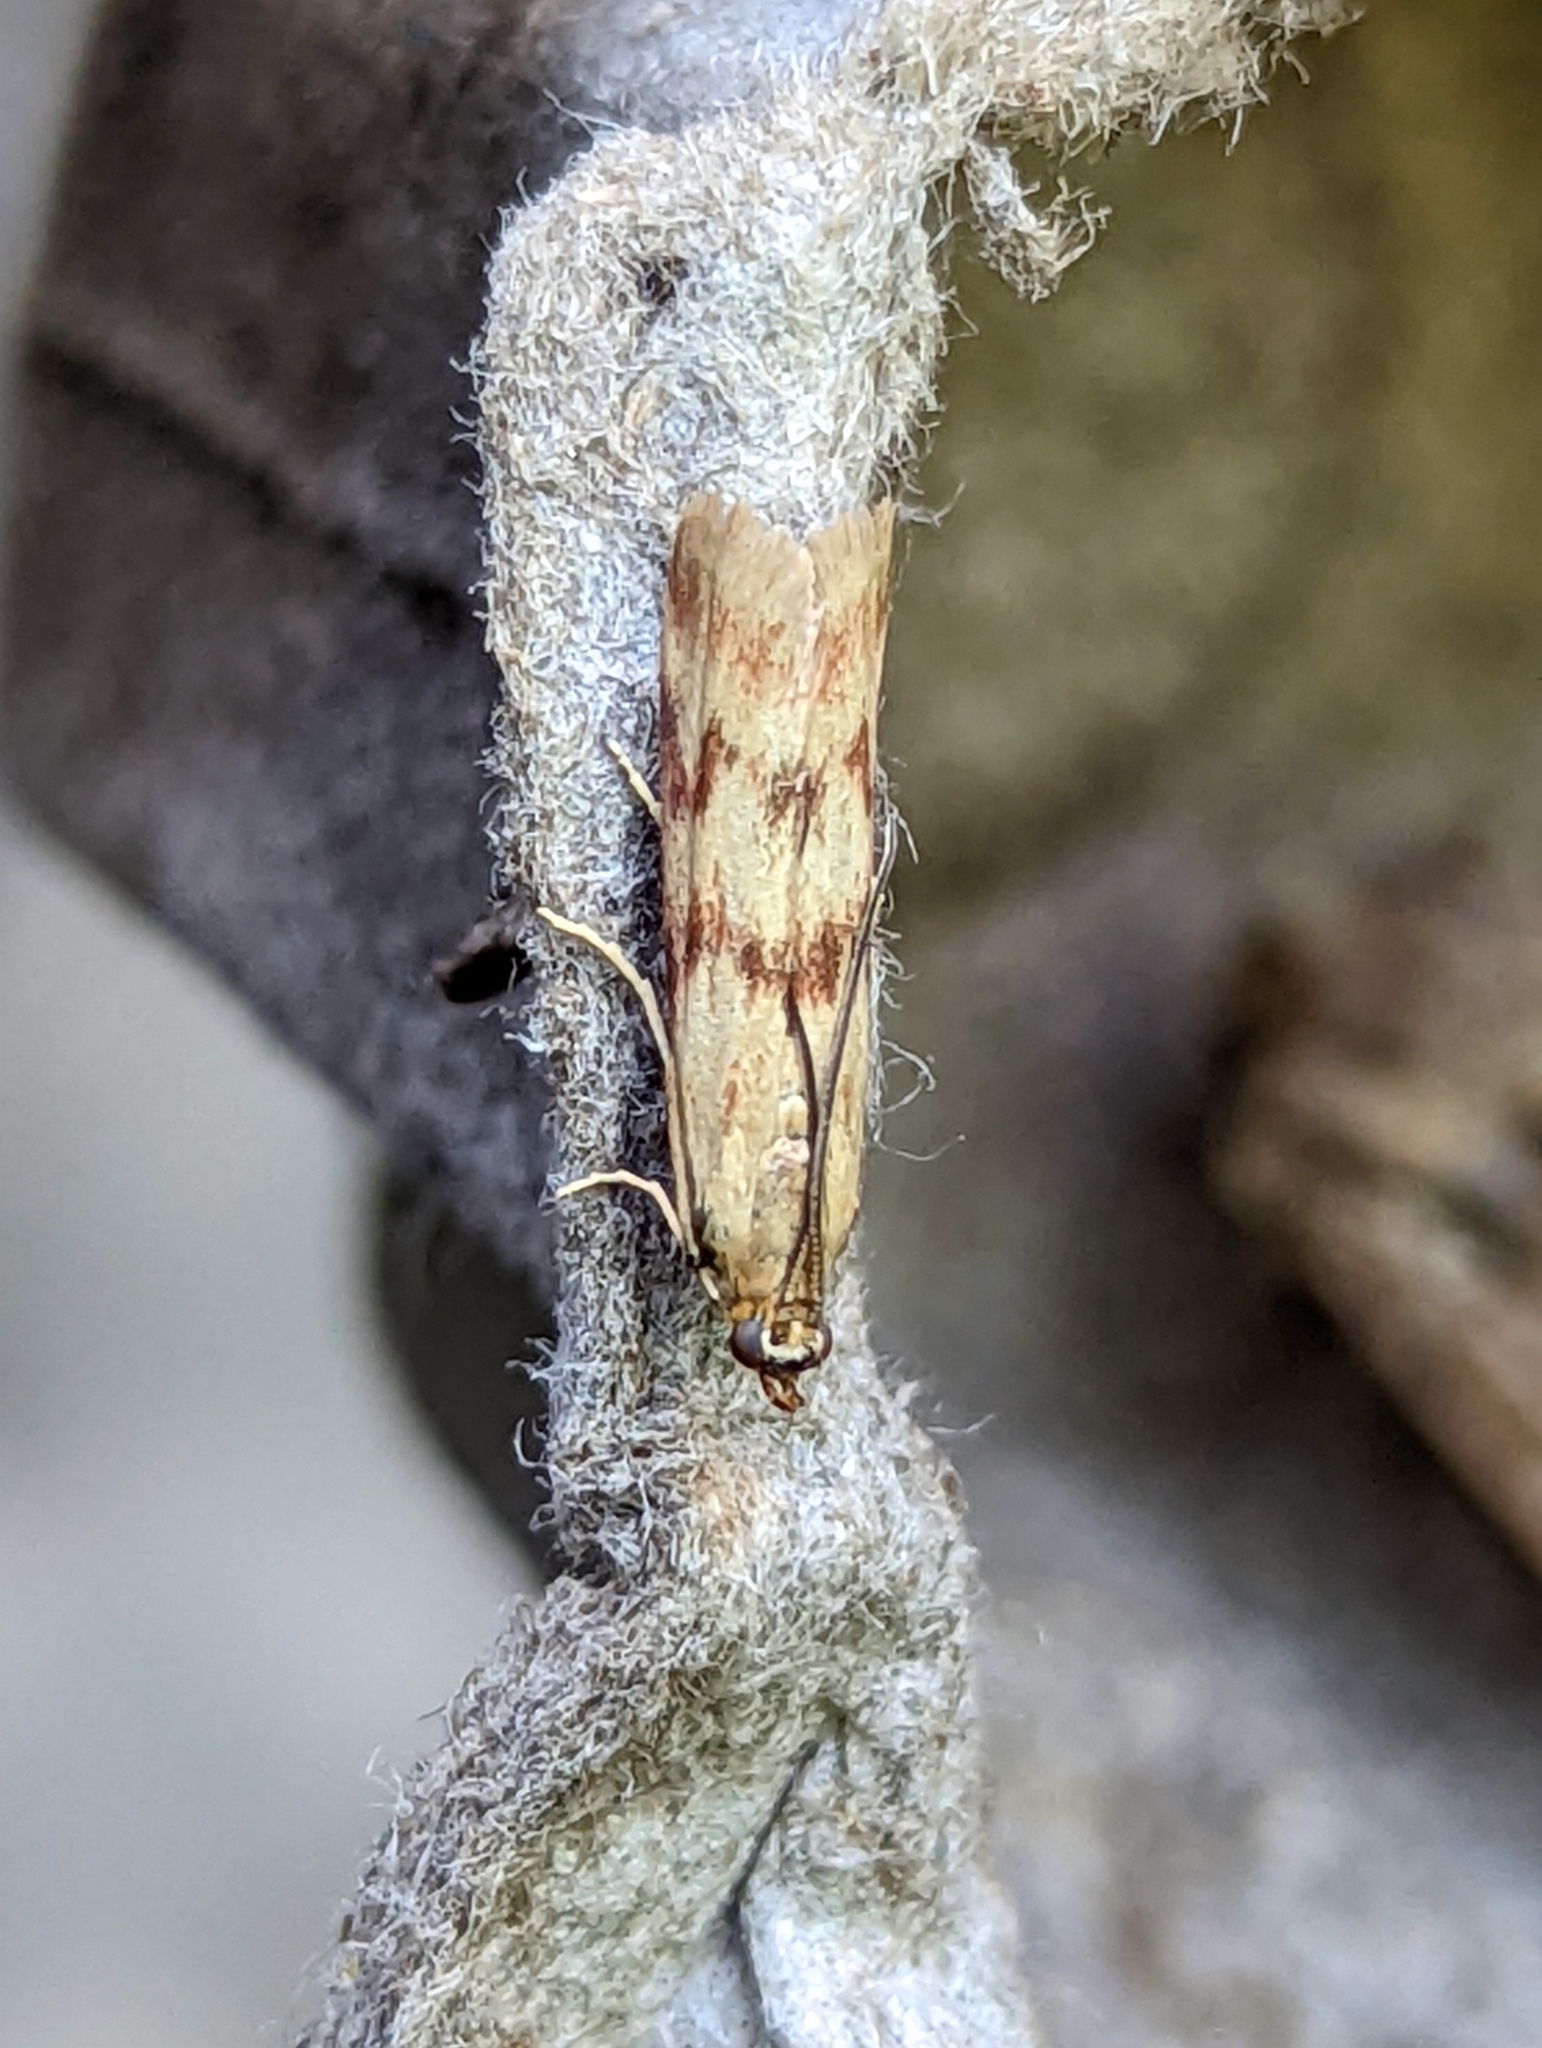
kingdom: Animalia
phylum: Arthropoda
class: Insecta
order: Lepidoptera
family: Pyralidae
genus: Homoeosoma
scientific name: Homoeosoma sinuella
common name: Twin-barred knot-horn
